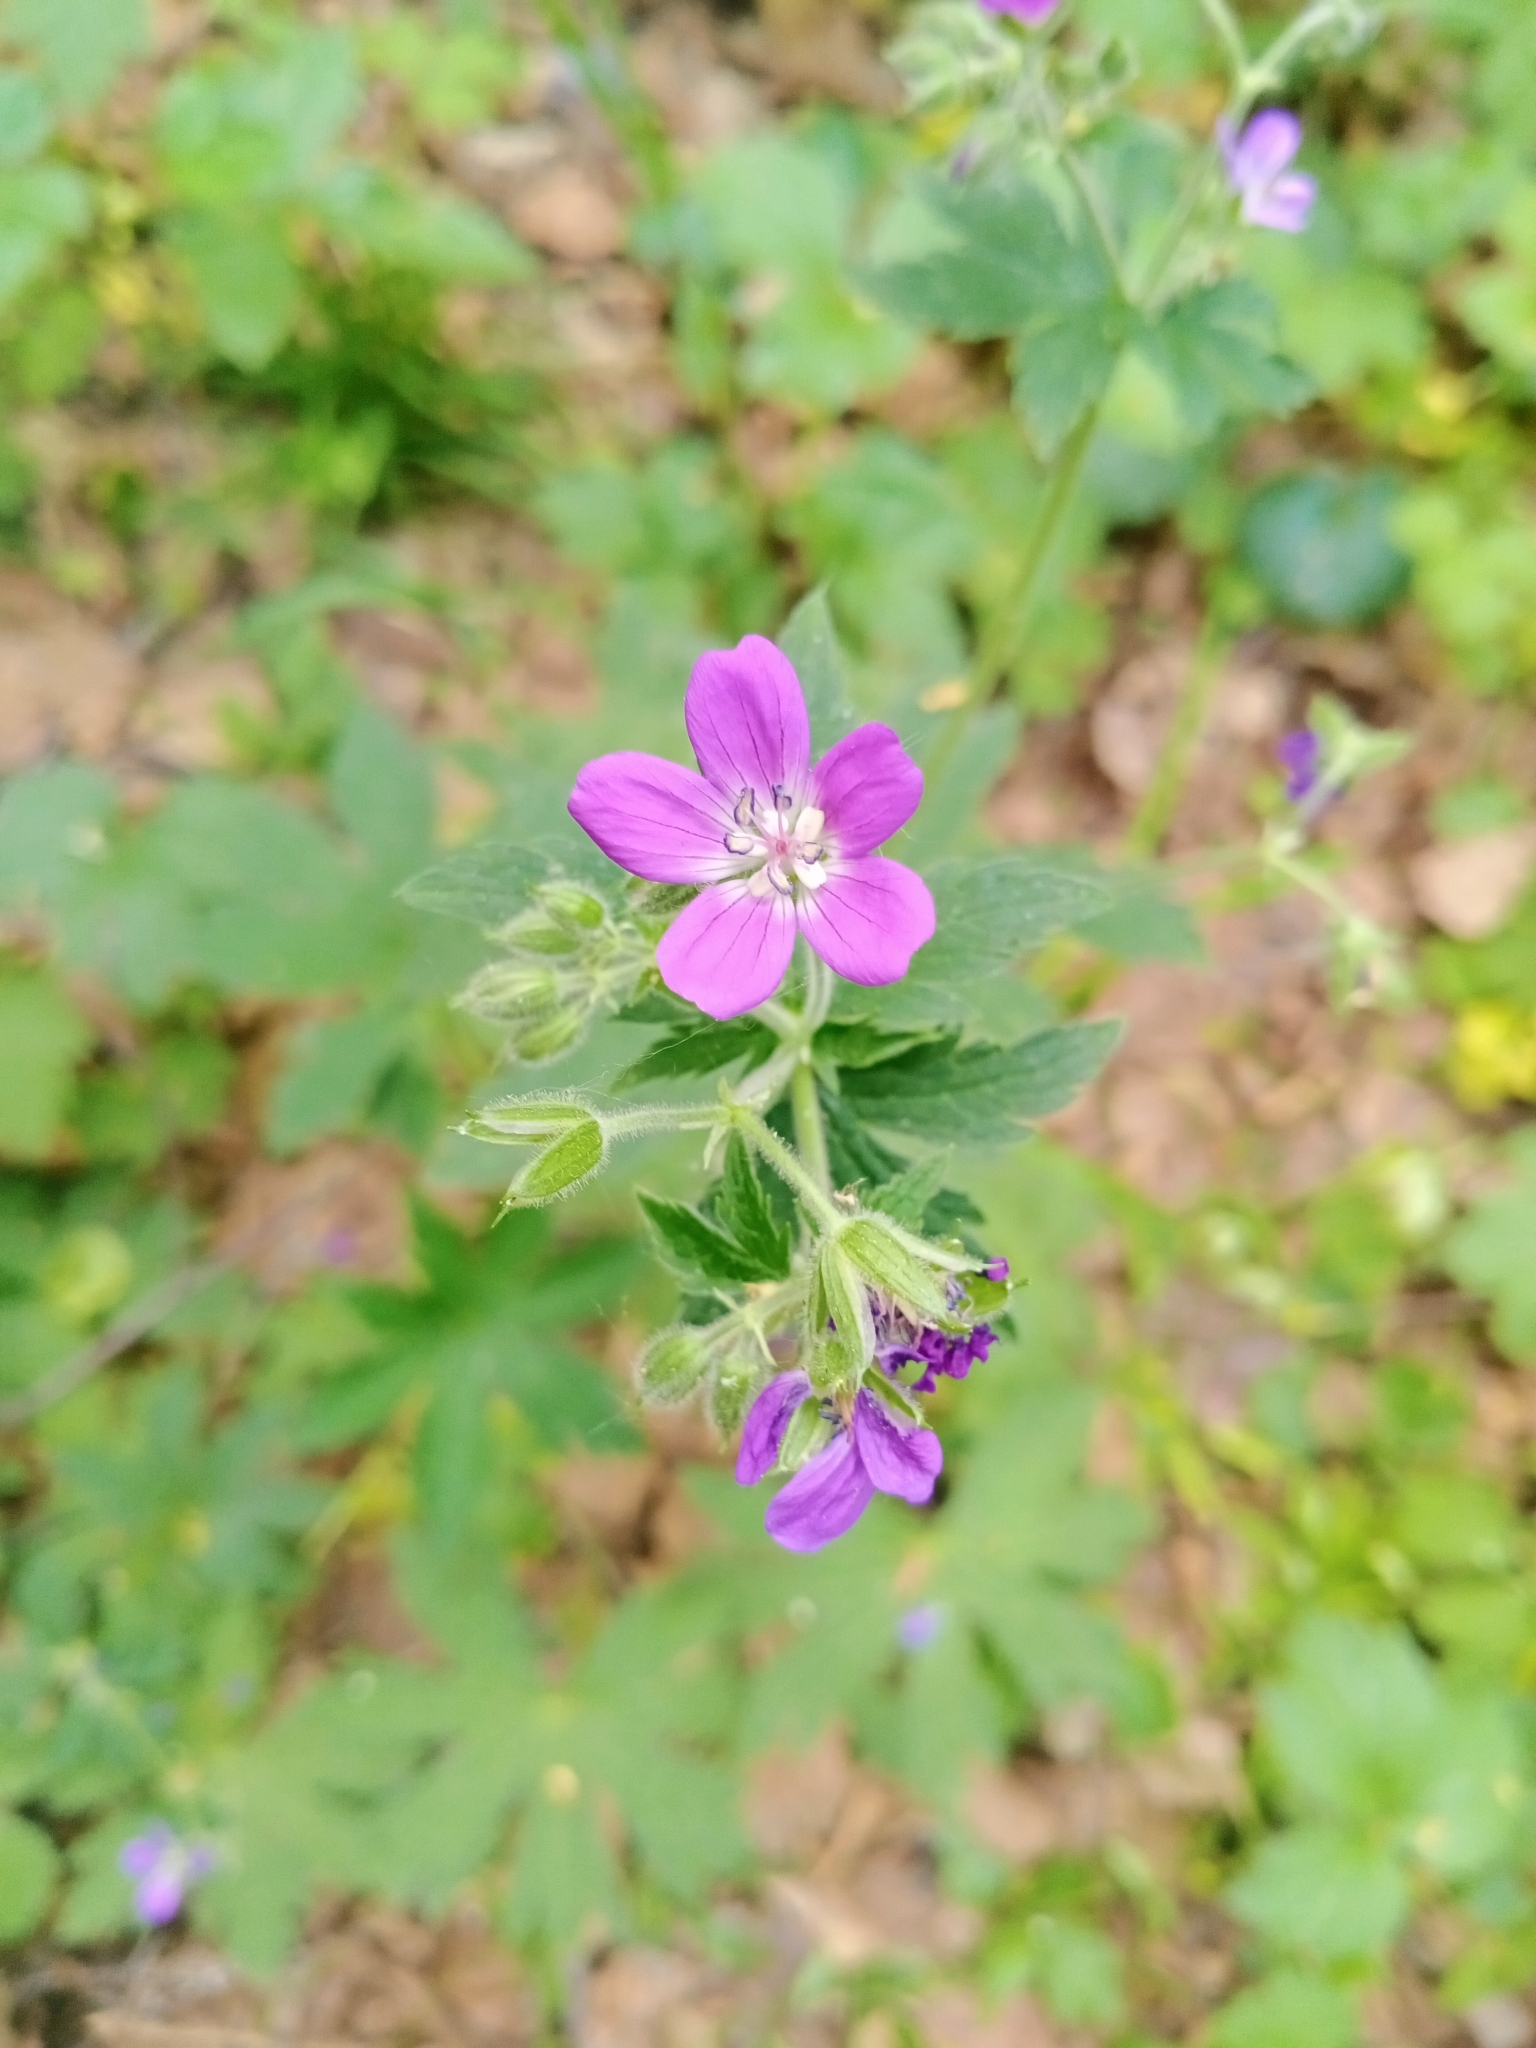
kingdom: Plantae
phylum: Tracheophyta
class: Magnoliopsida
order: Geraniales
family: Geraniaceae
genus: Geranium
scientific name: Geranium sylvaticum
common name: Wood crane's-bill
